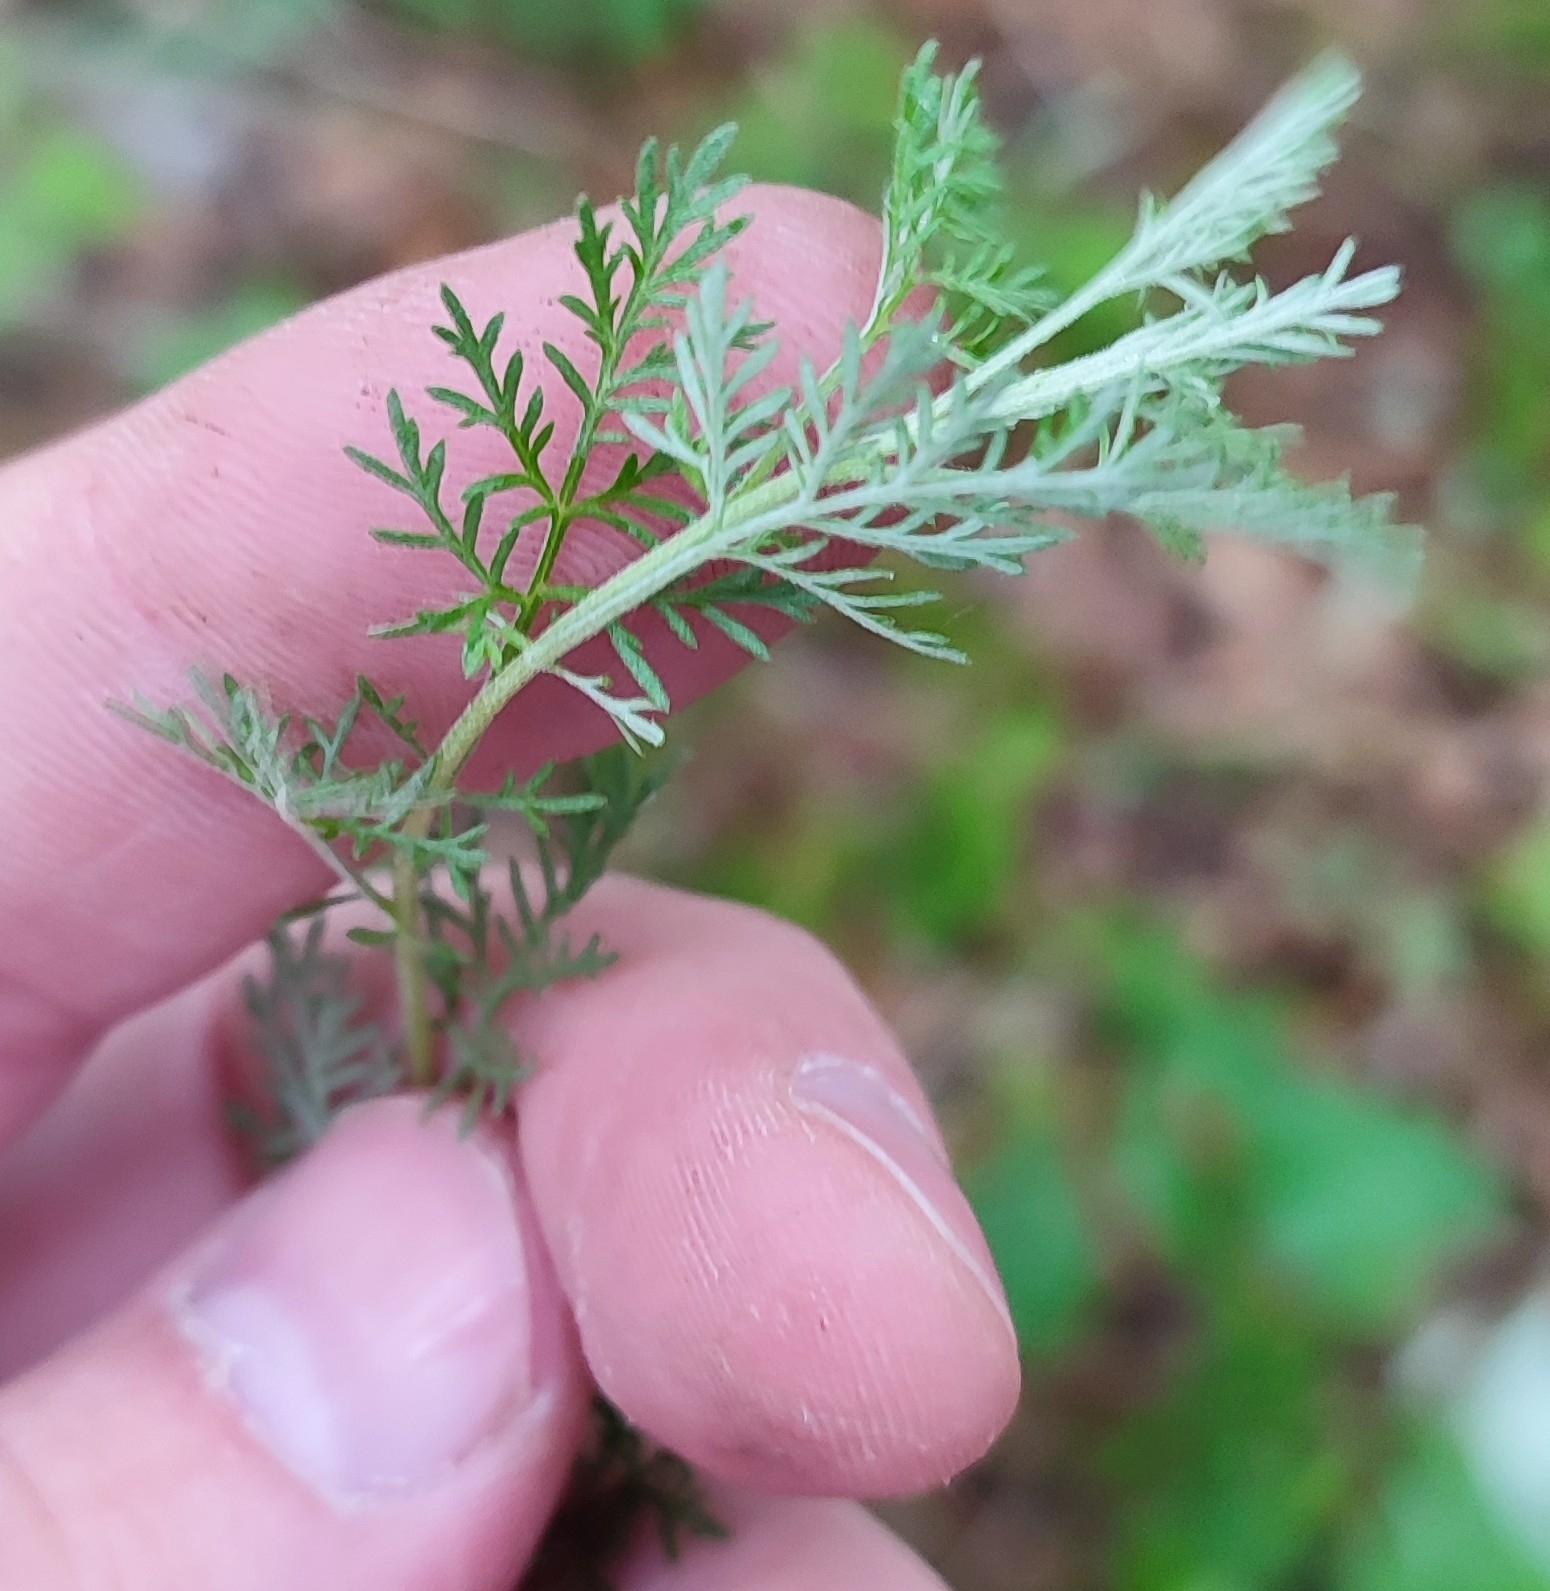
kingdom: Plantae
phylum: Tracheophyta
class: Magnoliopsida
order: Asterales
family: Asteraceae
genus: Artemisia
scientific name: Artemisia macrantha
